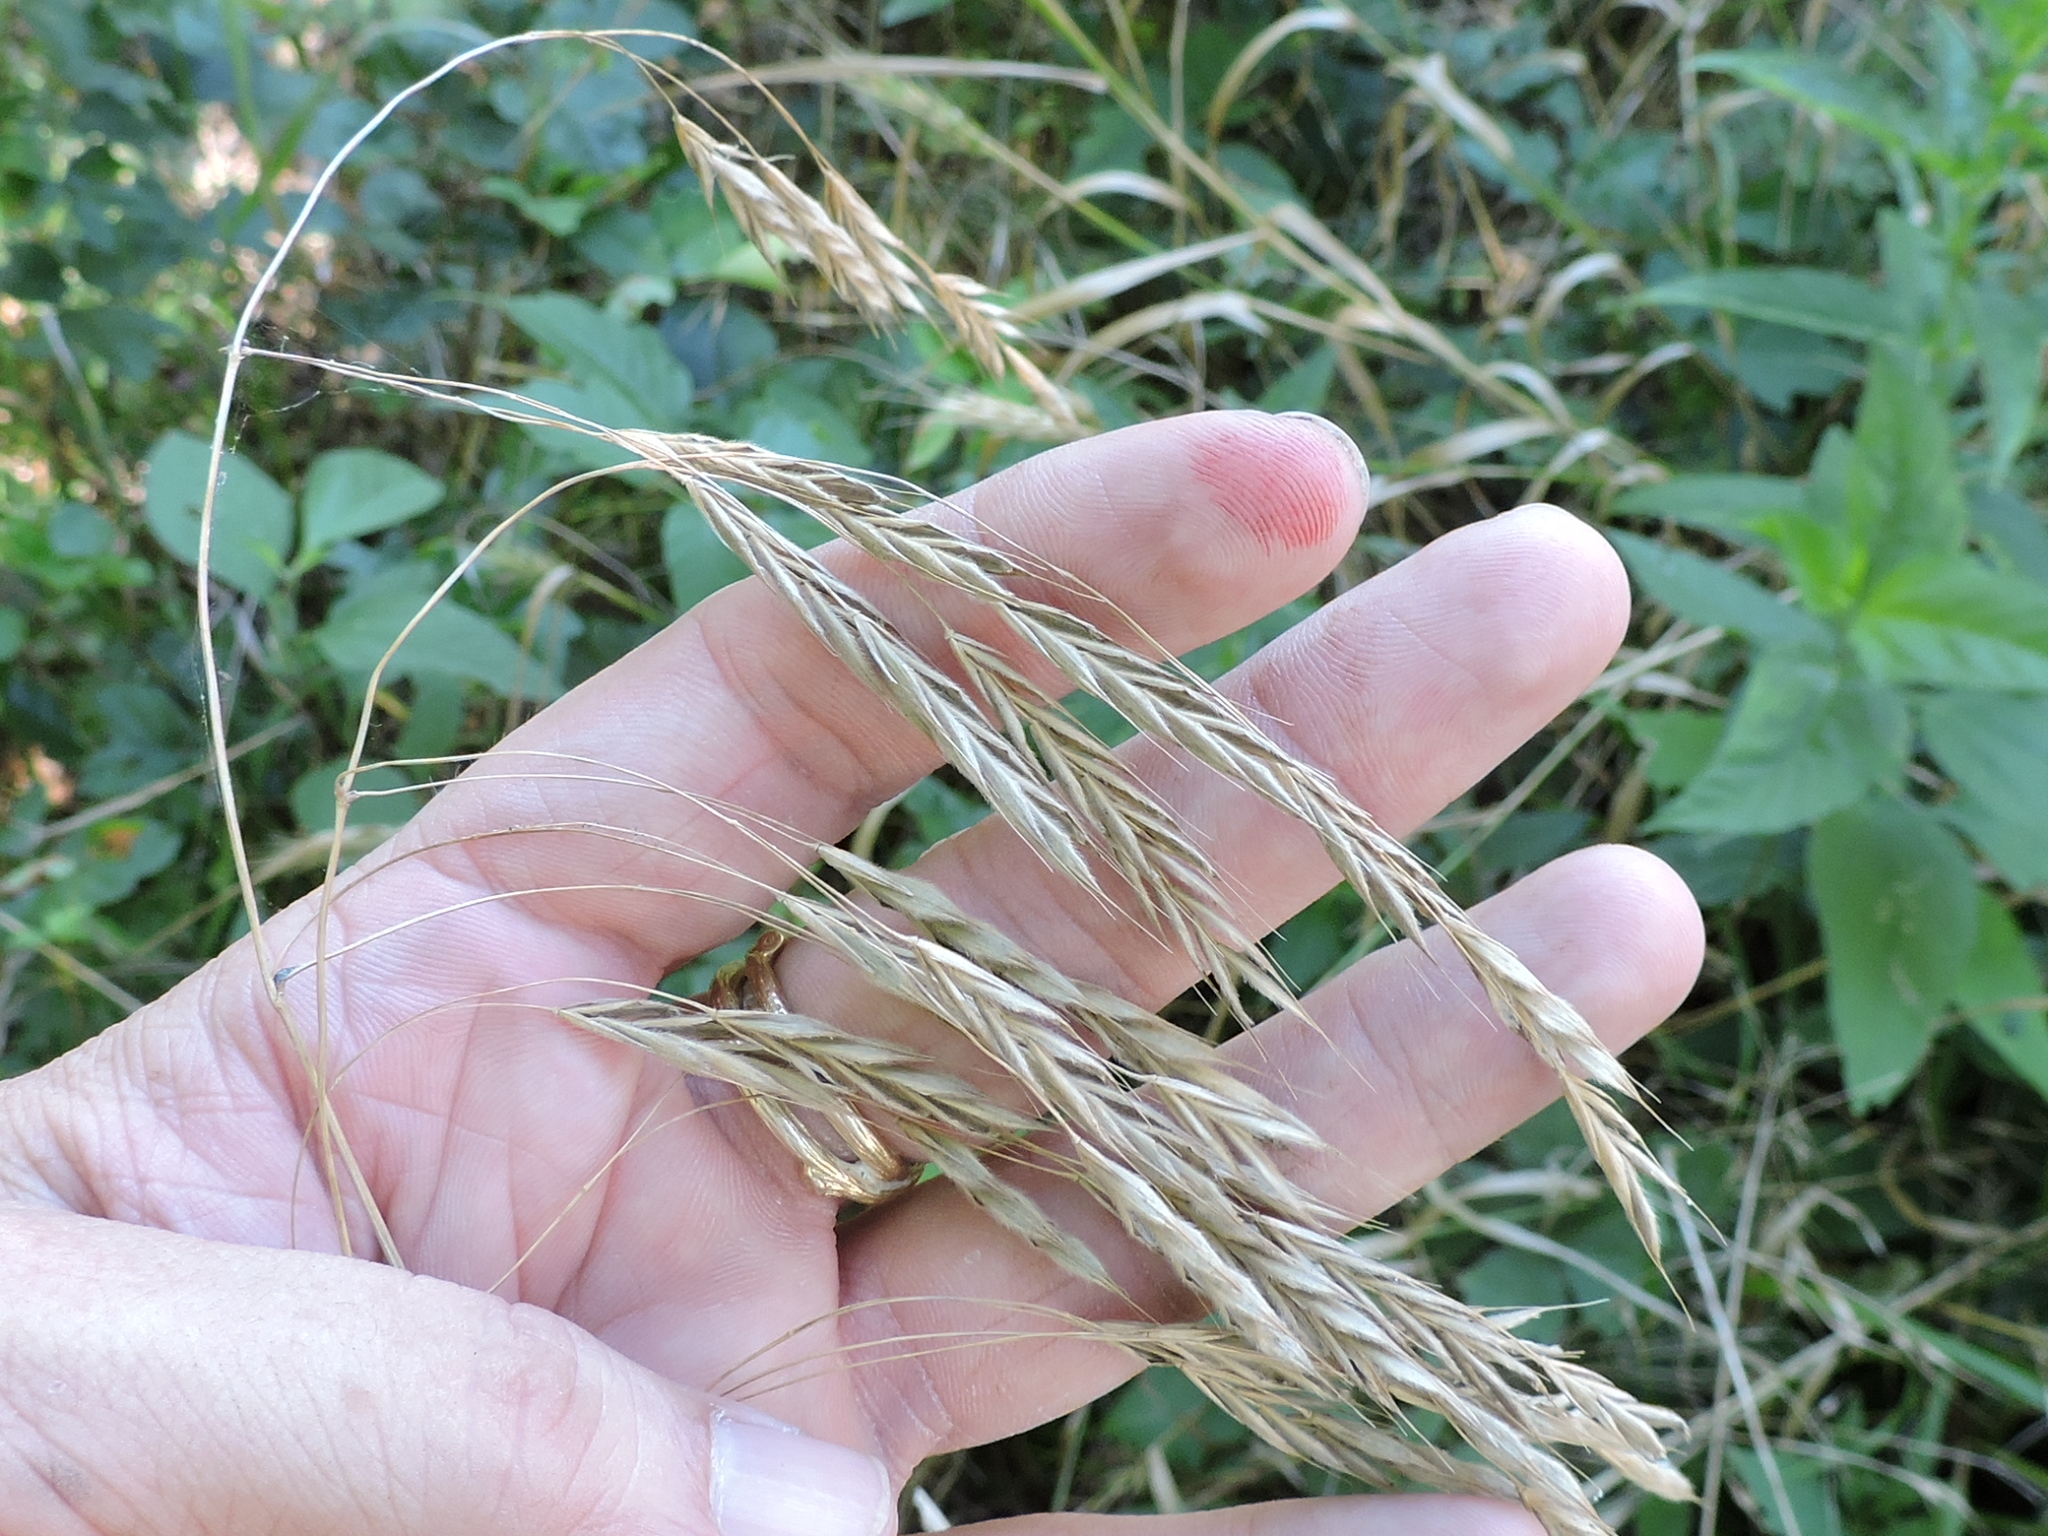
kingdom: Plantae
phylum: Tracheophyta
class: Liliopsida
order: Poales
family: Poaceae
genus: Bromus
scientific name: Bromus pubescens
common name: Hairy wood brome grass
